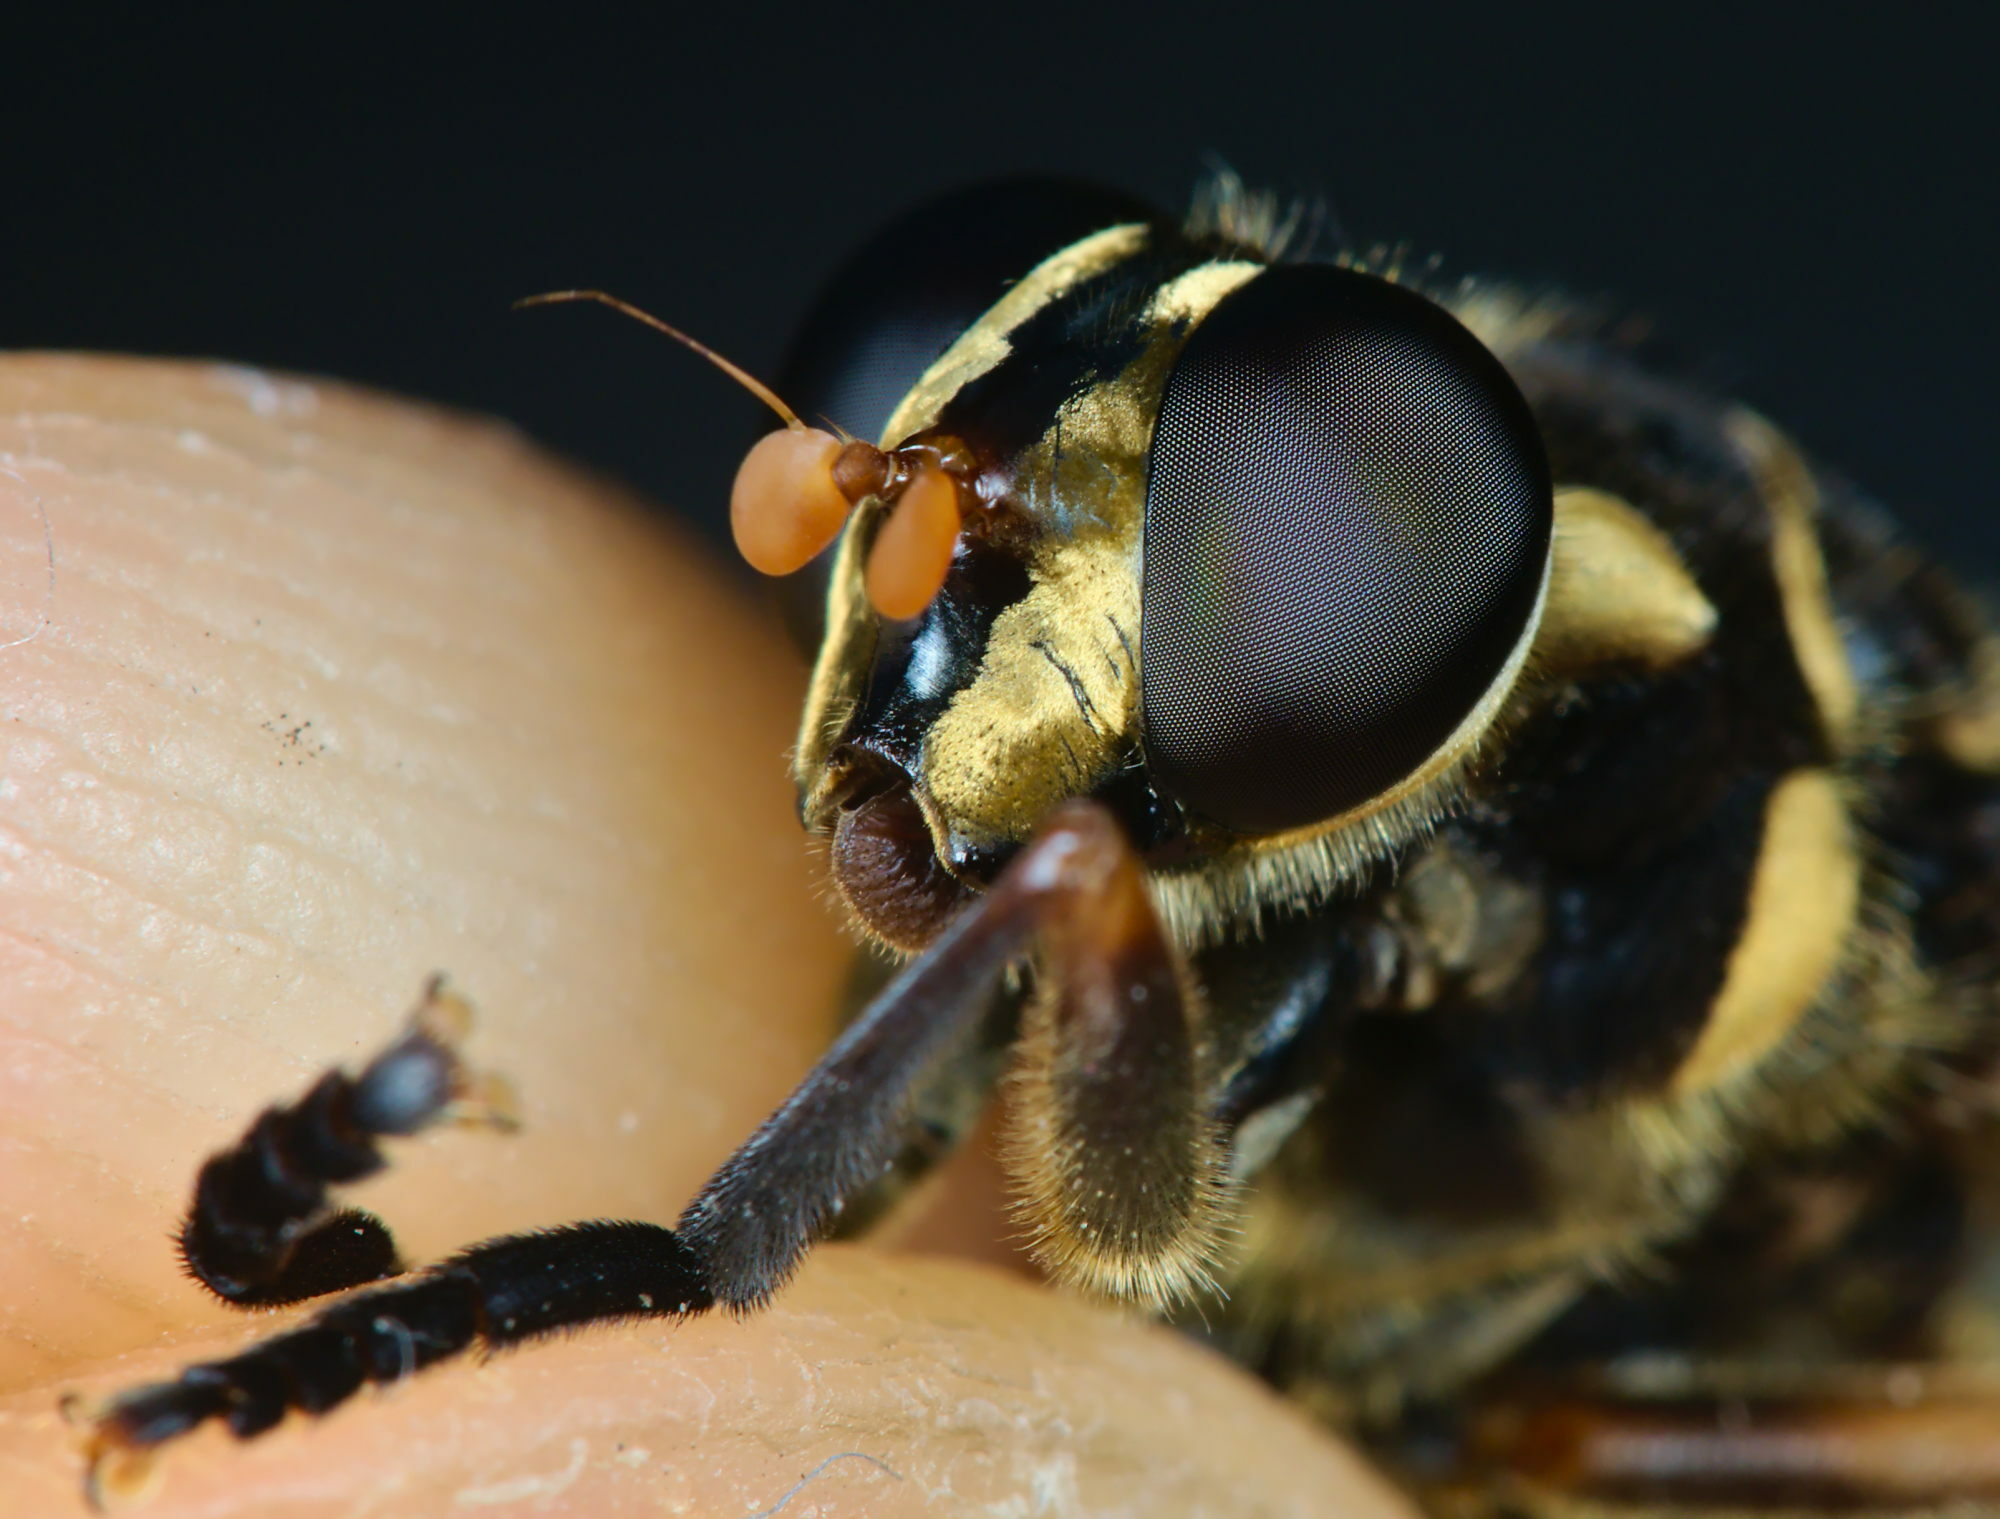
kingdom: Animalia
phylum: Arthropoda
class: Insecta
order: Diptera
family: Syrphidae
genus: Temnostoma
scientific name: Temnostoma vespiforme
